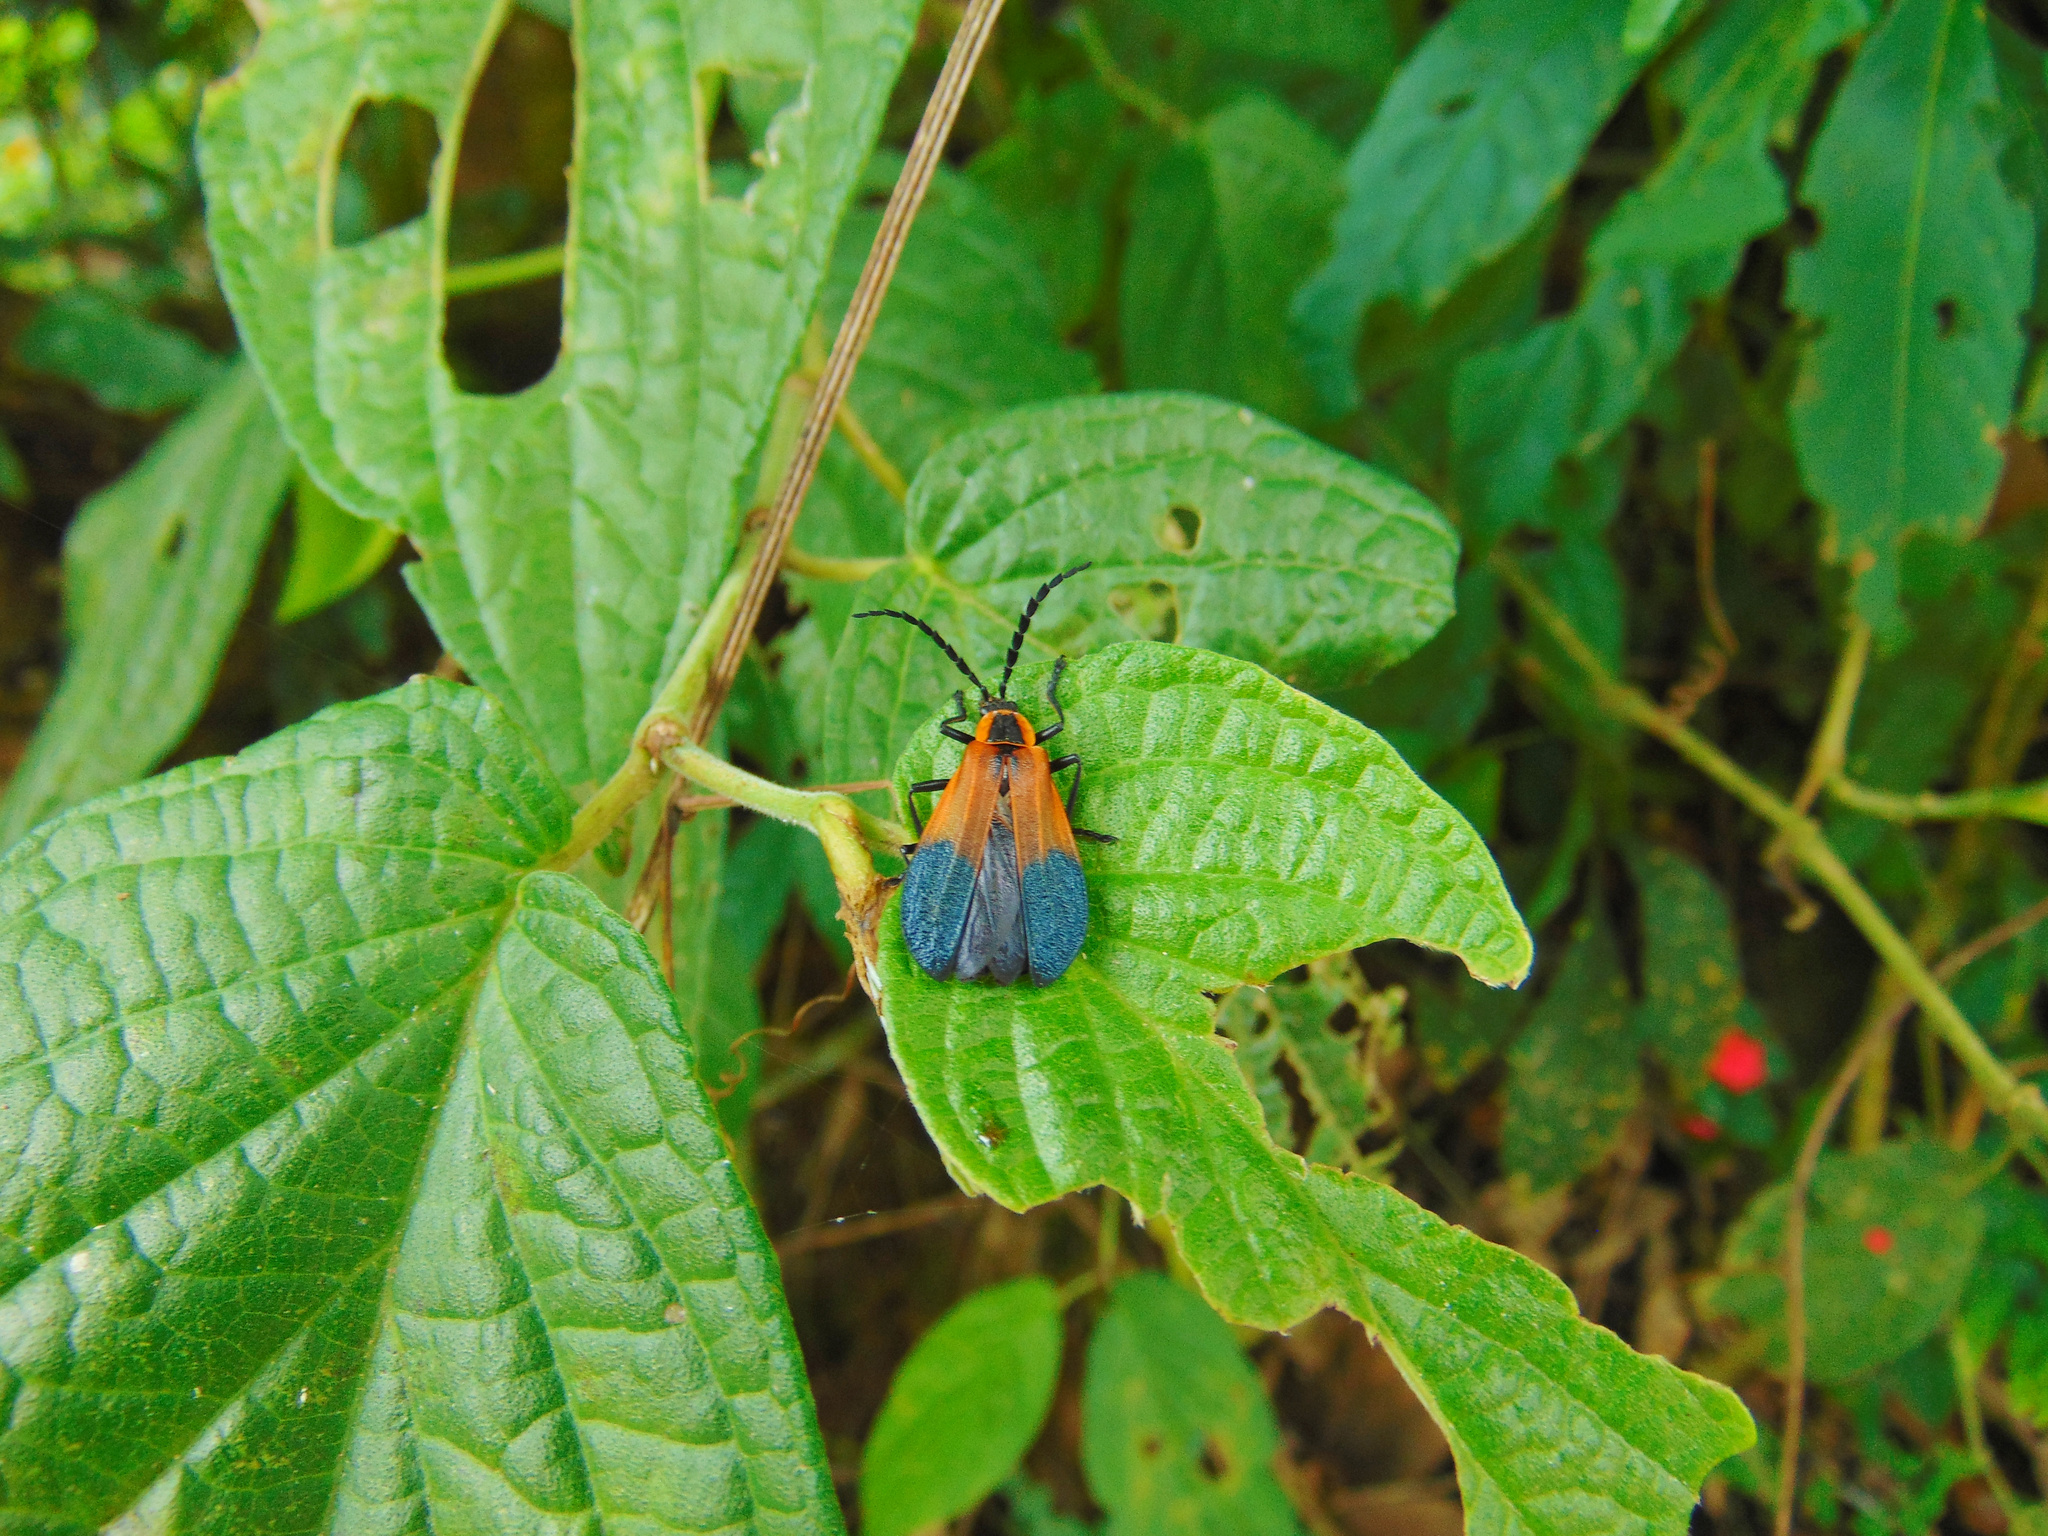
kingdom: Animalia
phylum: Arthropoda
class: Insecta
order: Coleoptera
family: Cantharidae
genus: Daiphron
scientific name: Daiphron
